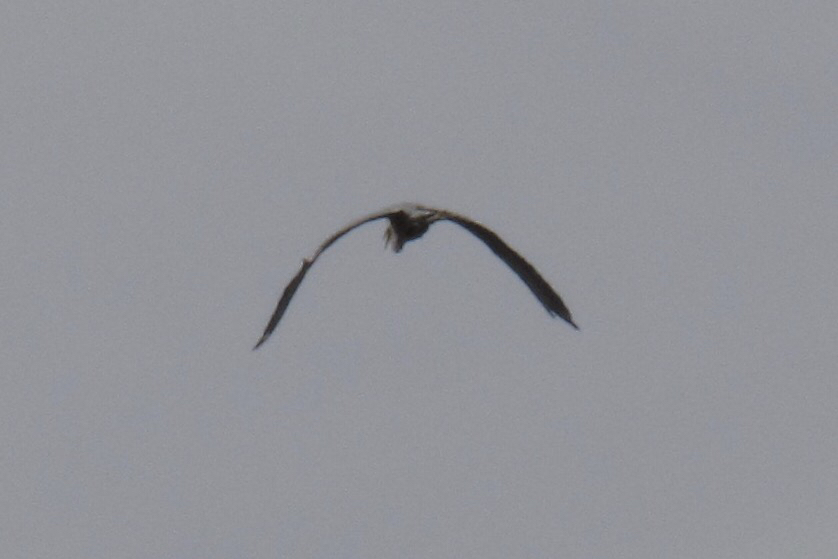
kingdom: Animalia
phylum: Chordata
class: Aves
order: Pelecaniformes
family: Ardeidae
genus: Ardea
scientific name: Ardea herodias
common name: Great blue heron
